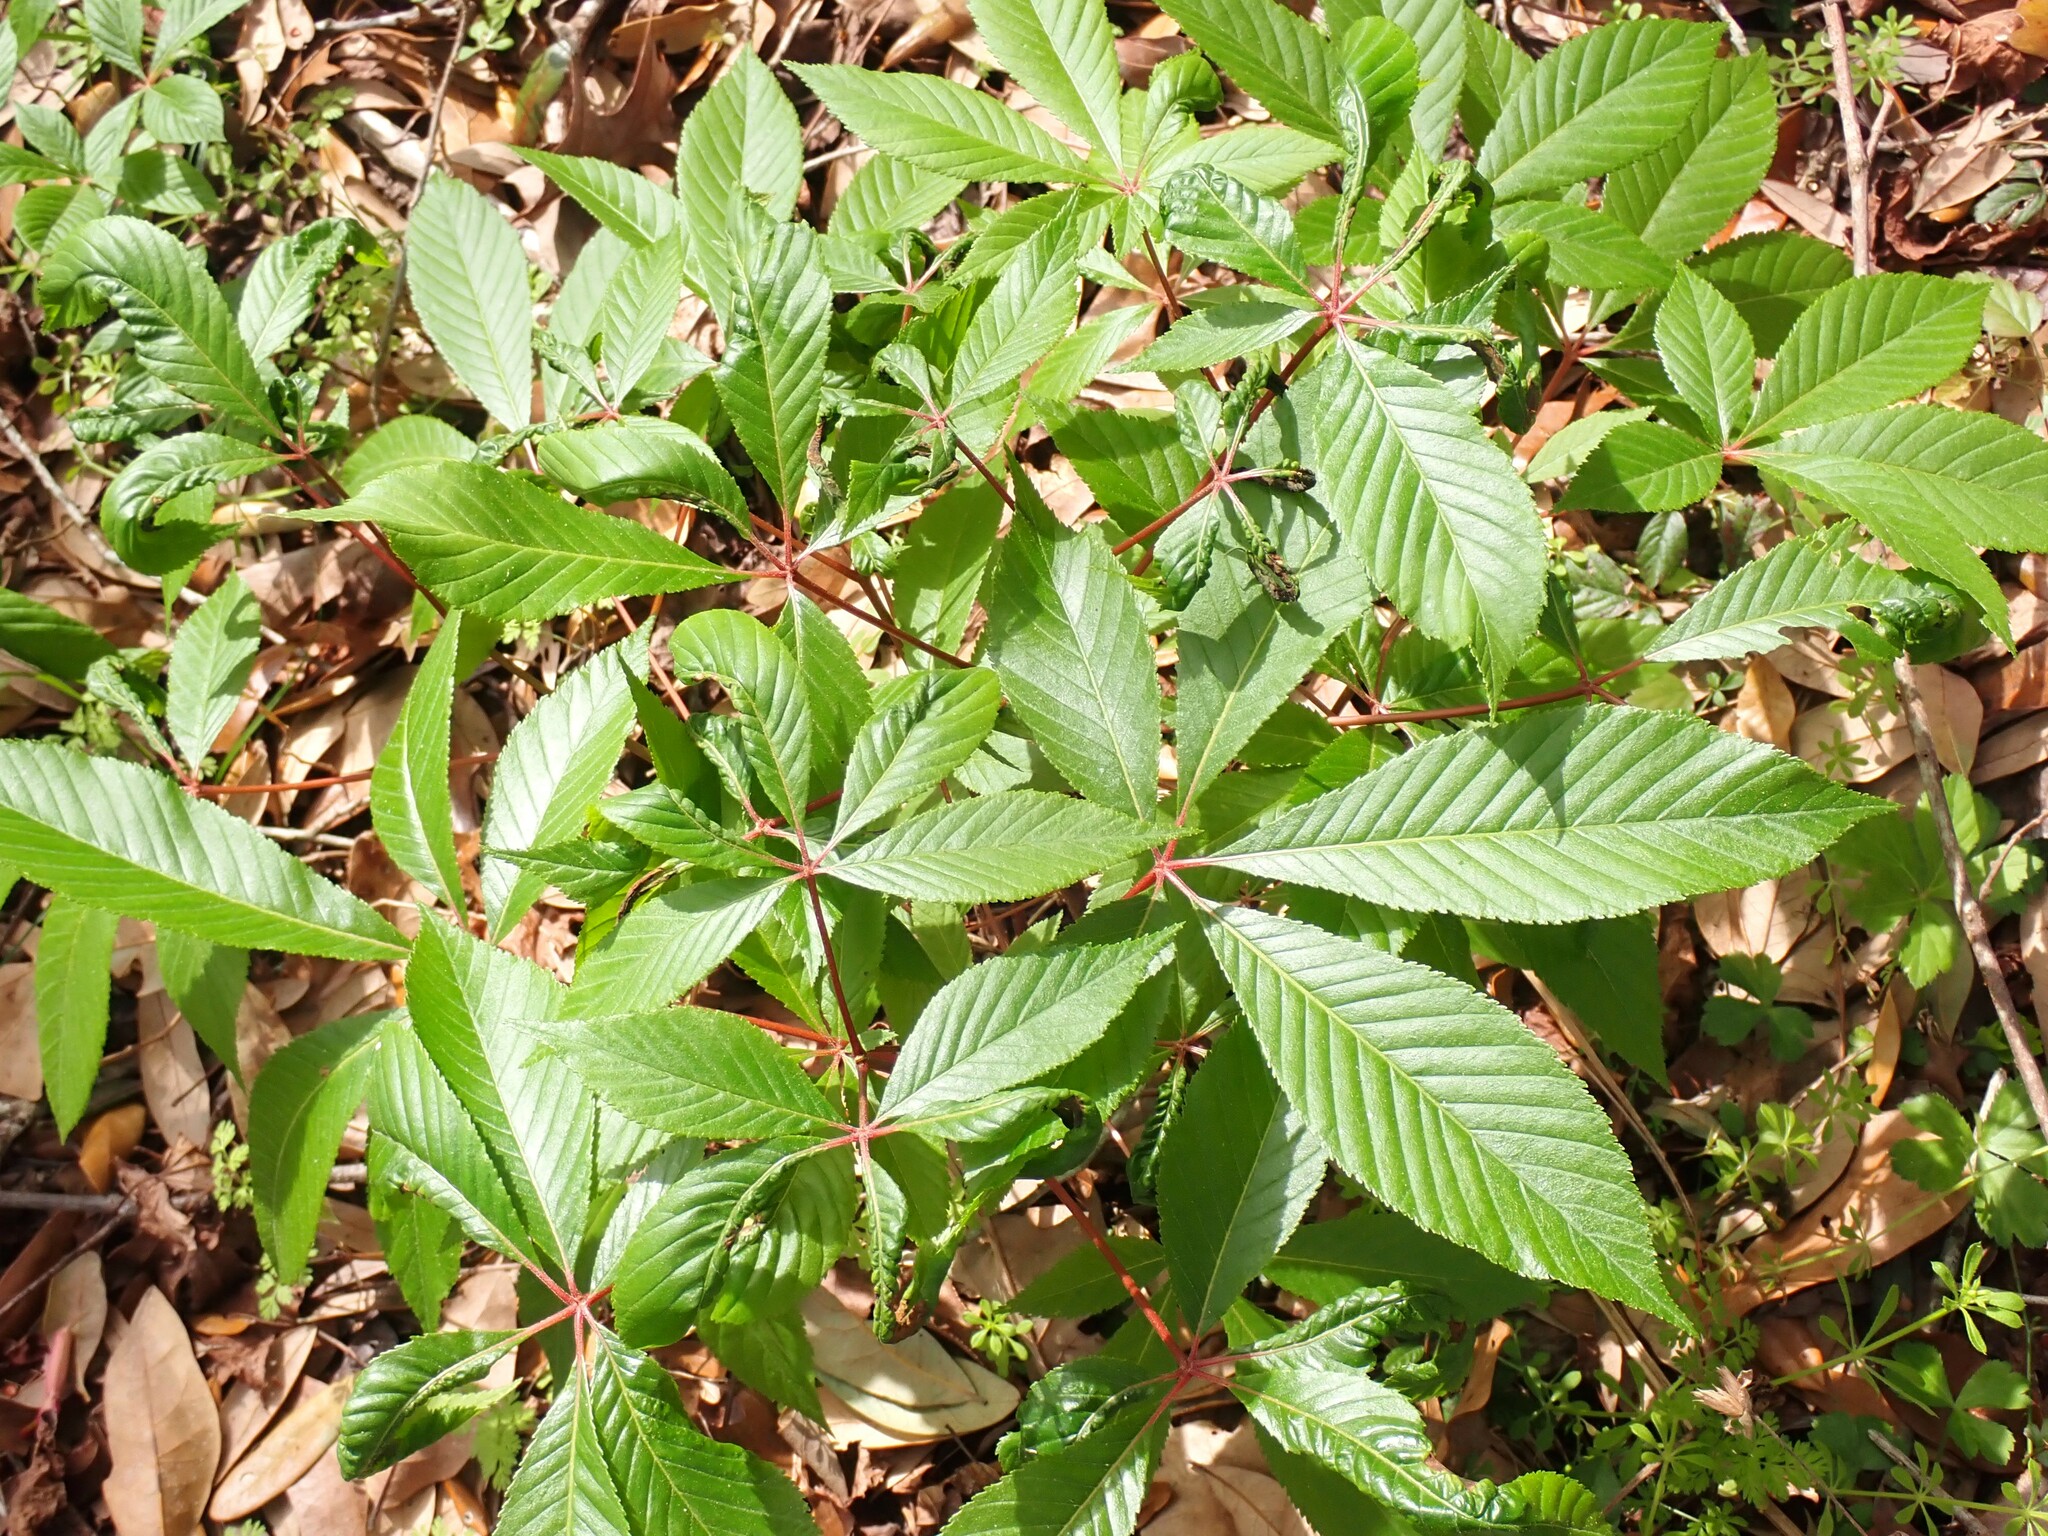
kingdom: Plantae
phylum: Tracheophyta
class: Magnoliopsida
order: Sapindales
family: Sapindaceae
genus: Aesculus
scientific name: Aesculus pavia
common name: Red buckeye
